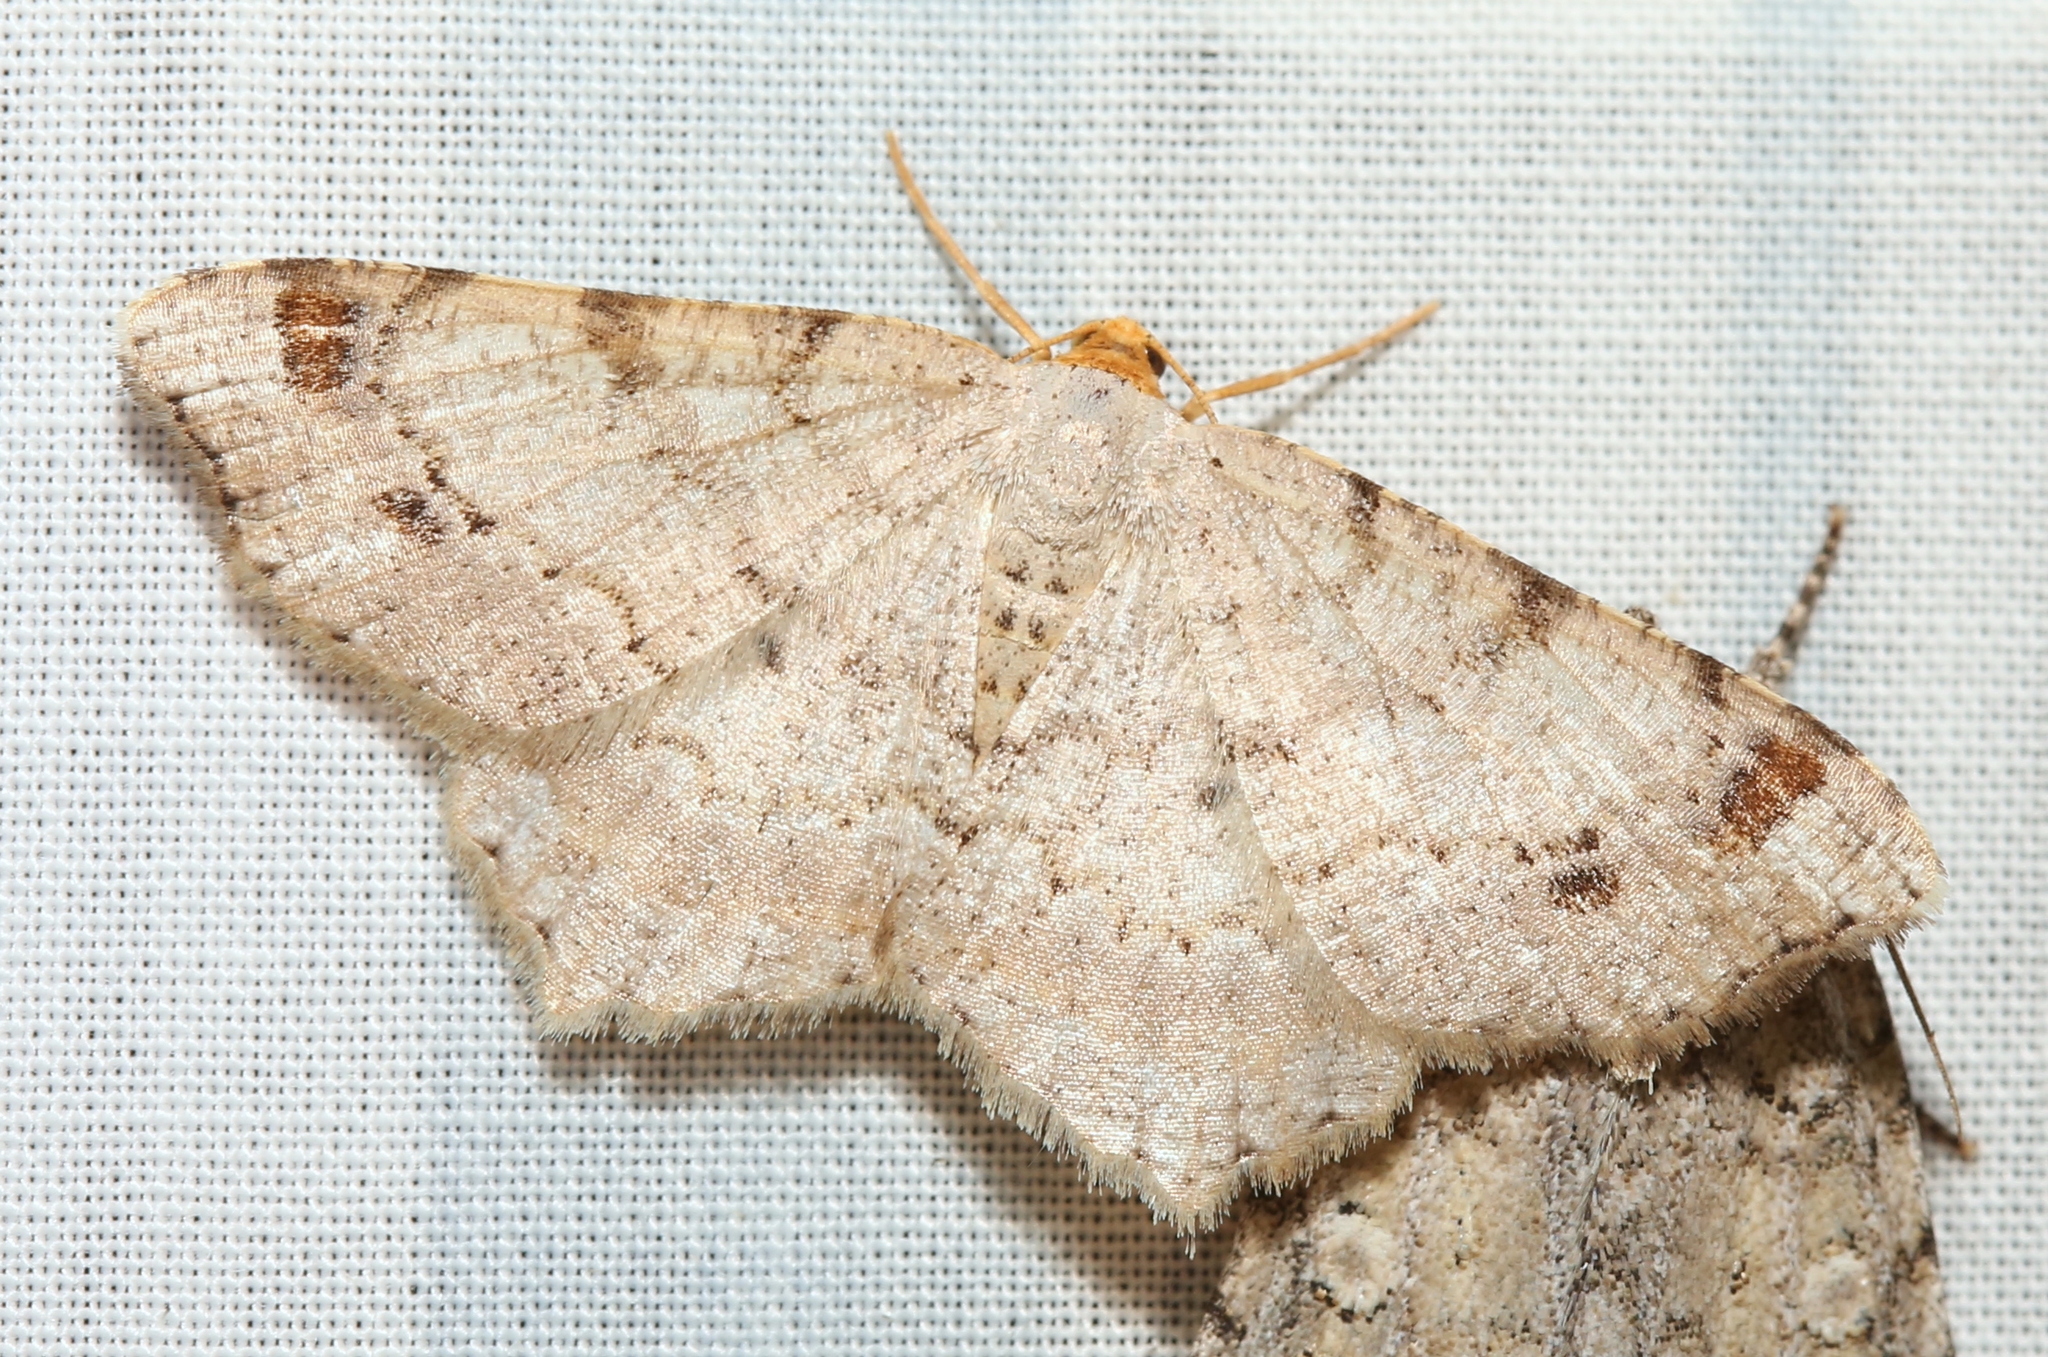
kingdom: Animalia
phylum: Arthropoda
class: Insecta
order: Lepidoptera
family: Geometridae
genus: Macaria
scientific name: Macaria bisignata
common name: Red-headed inchworm
